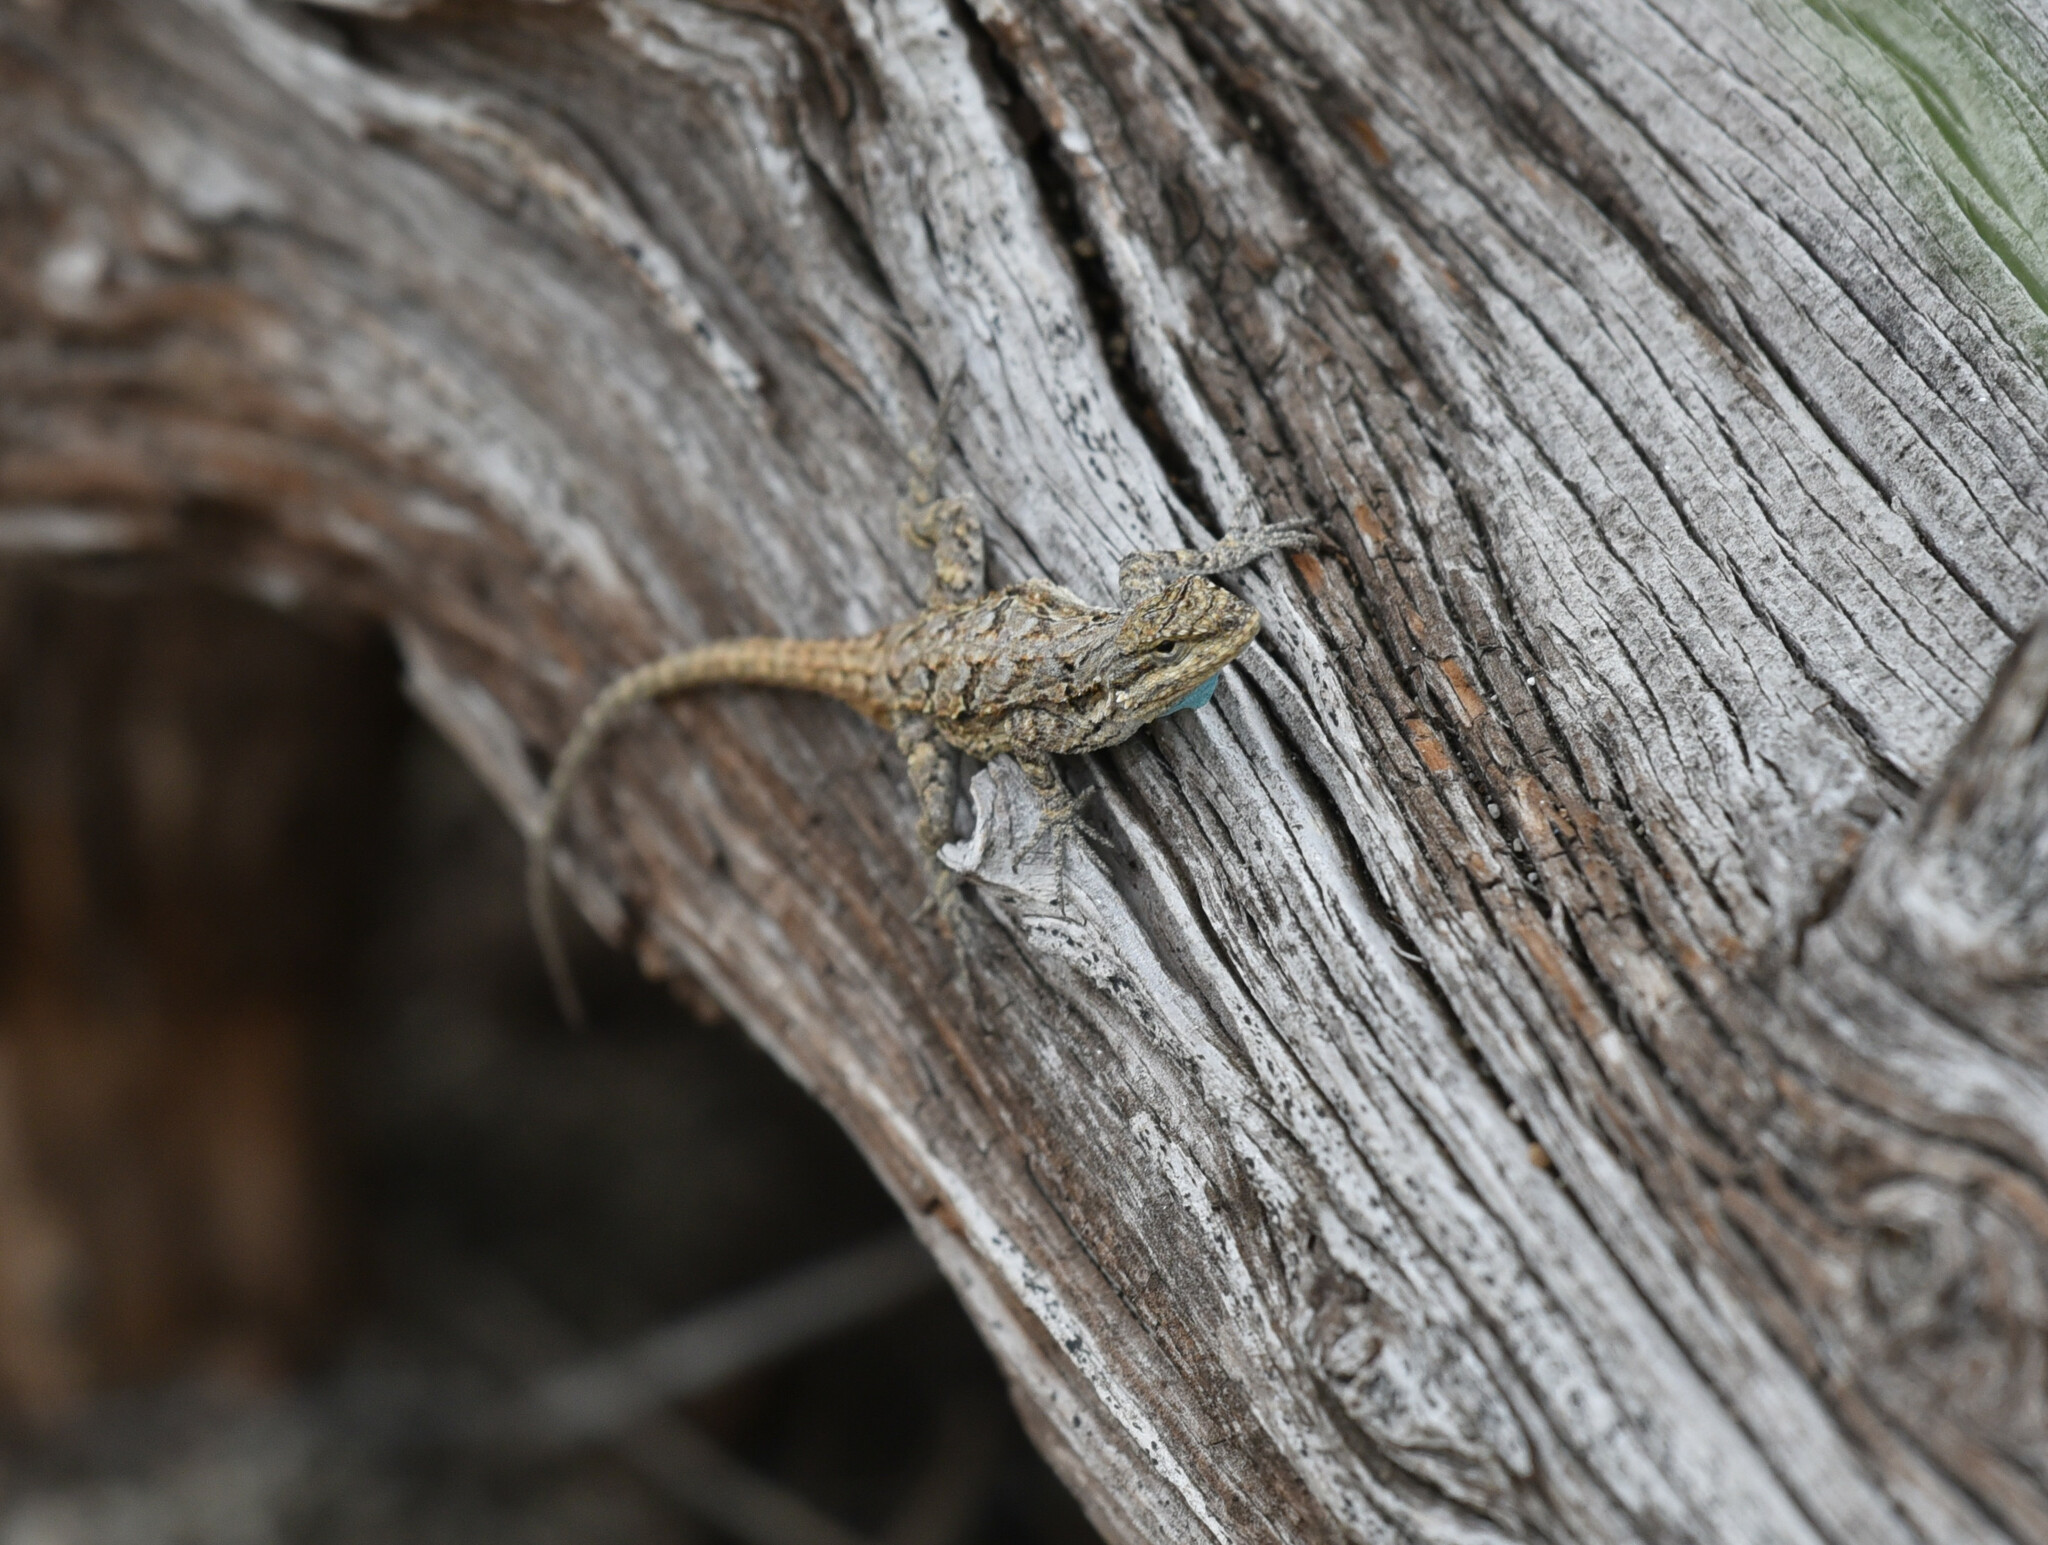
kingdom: Animalia
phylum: Chordata
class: Squamata
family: Phrynosomatidae
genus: Urosaurus
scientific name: Urosaurus ornatus
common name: Ornate tree lizard
